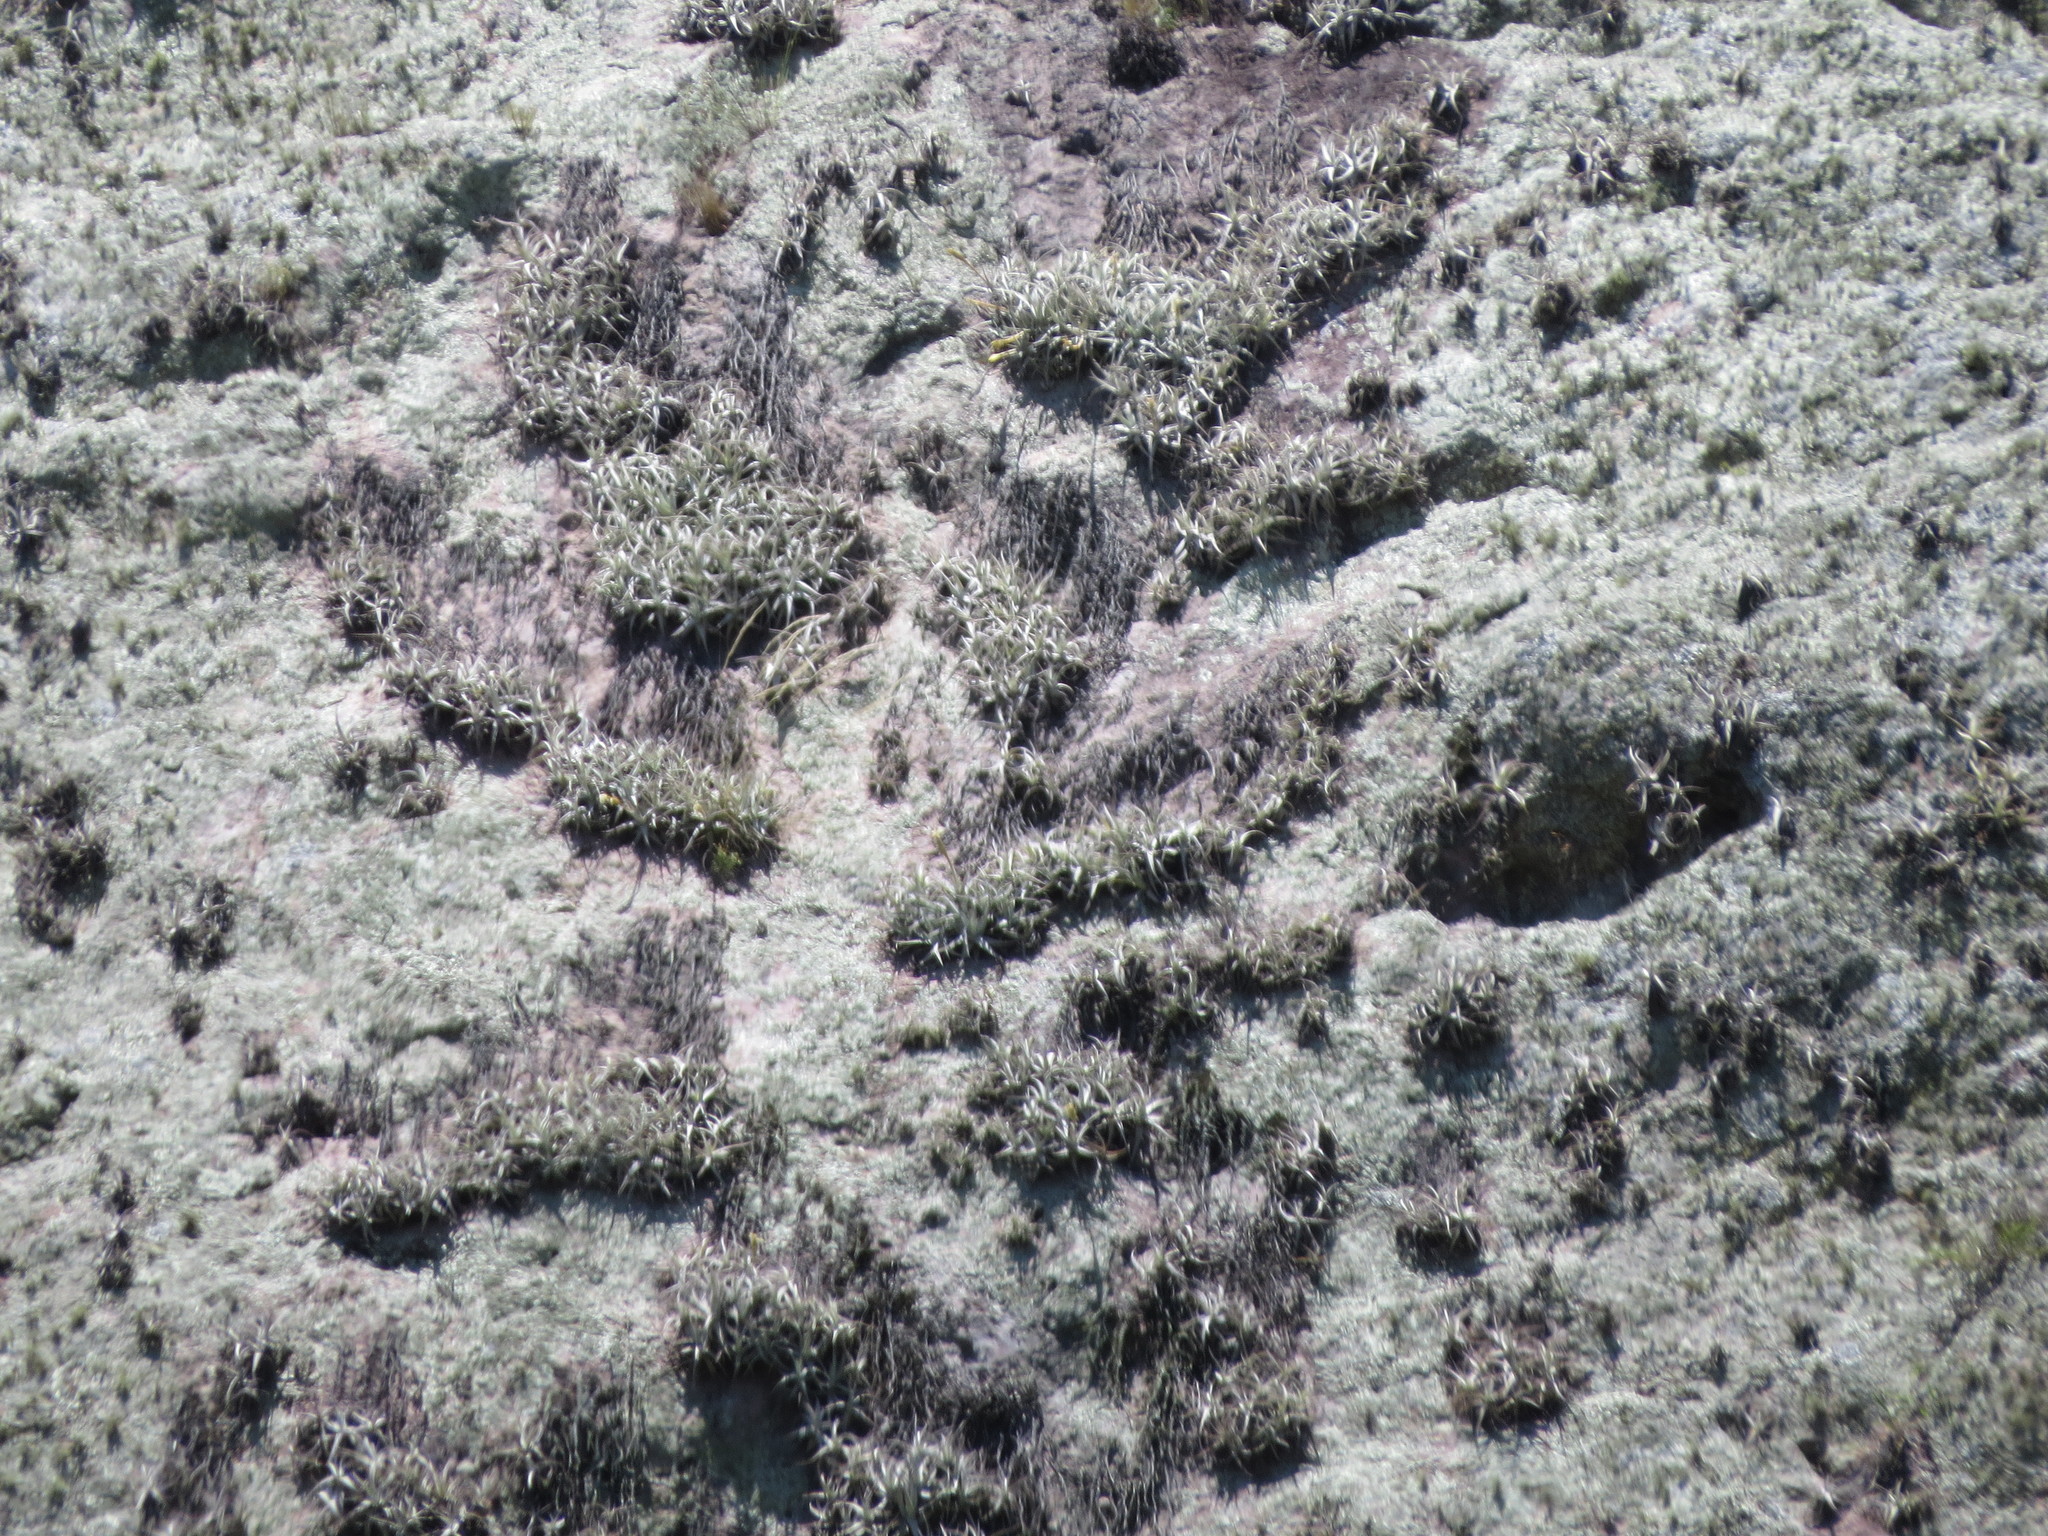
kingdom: Plantae
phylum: Tracheophyta
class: Liliopsida
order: Poales
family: Bromeliaceae
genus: Tillandsia
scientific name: Tillandsia arequitae
